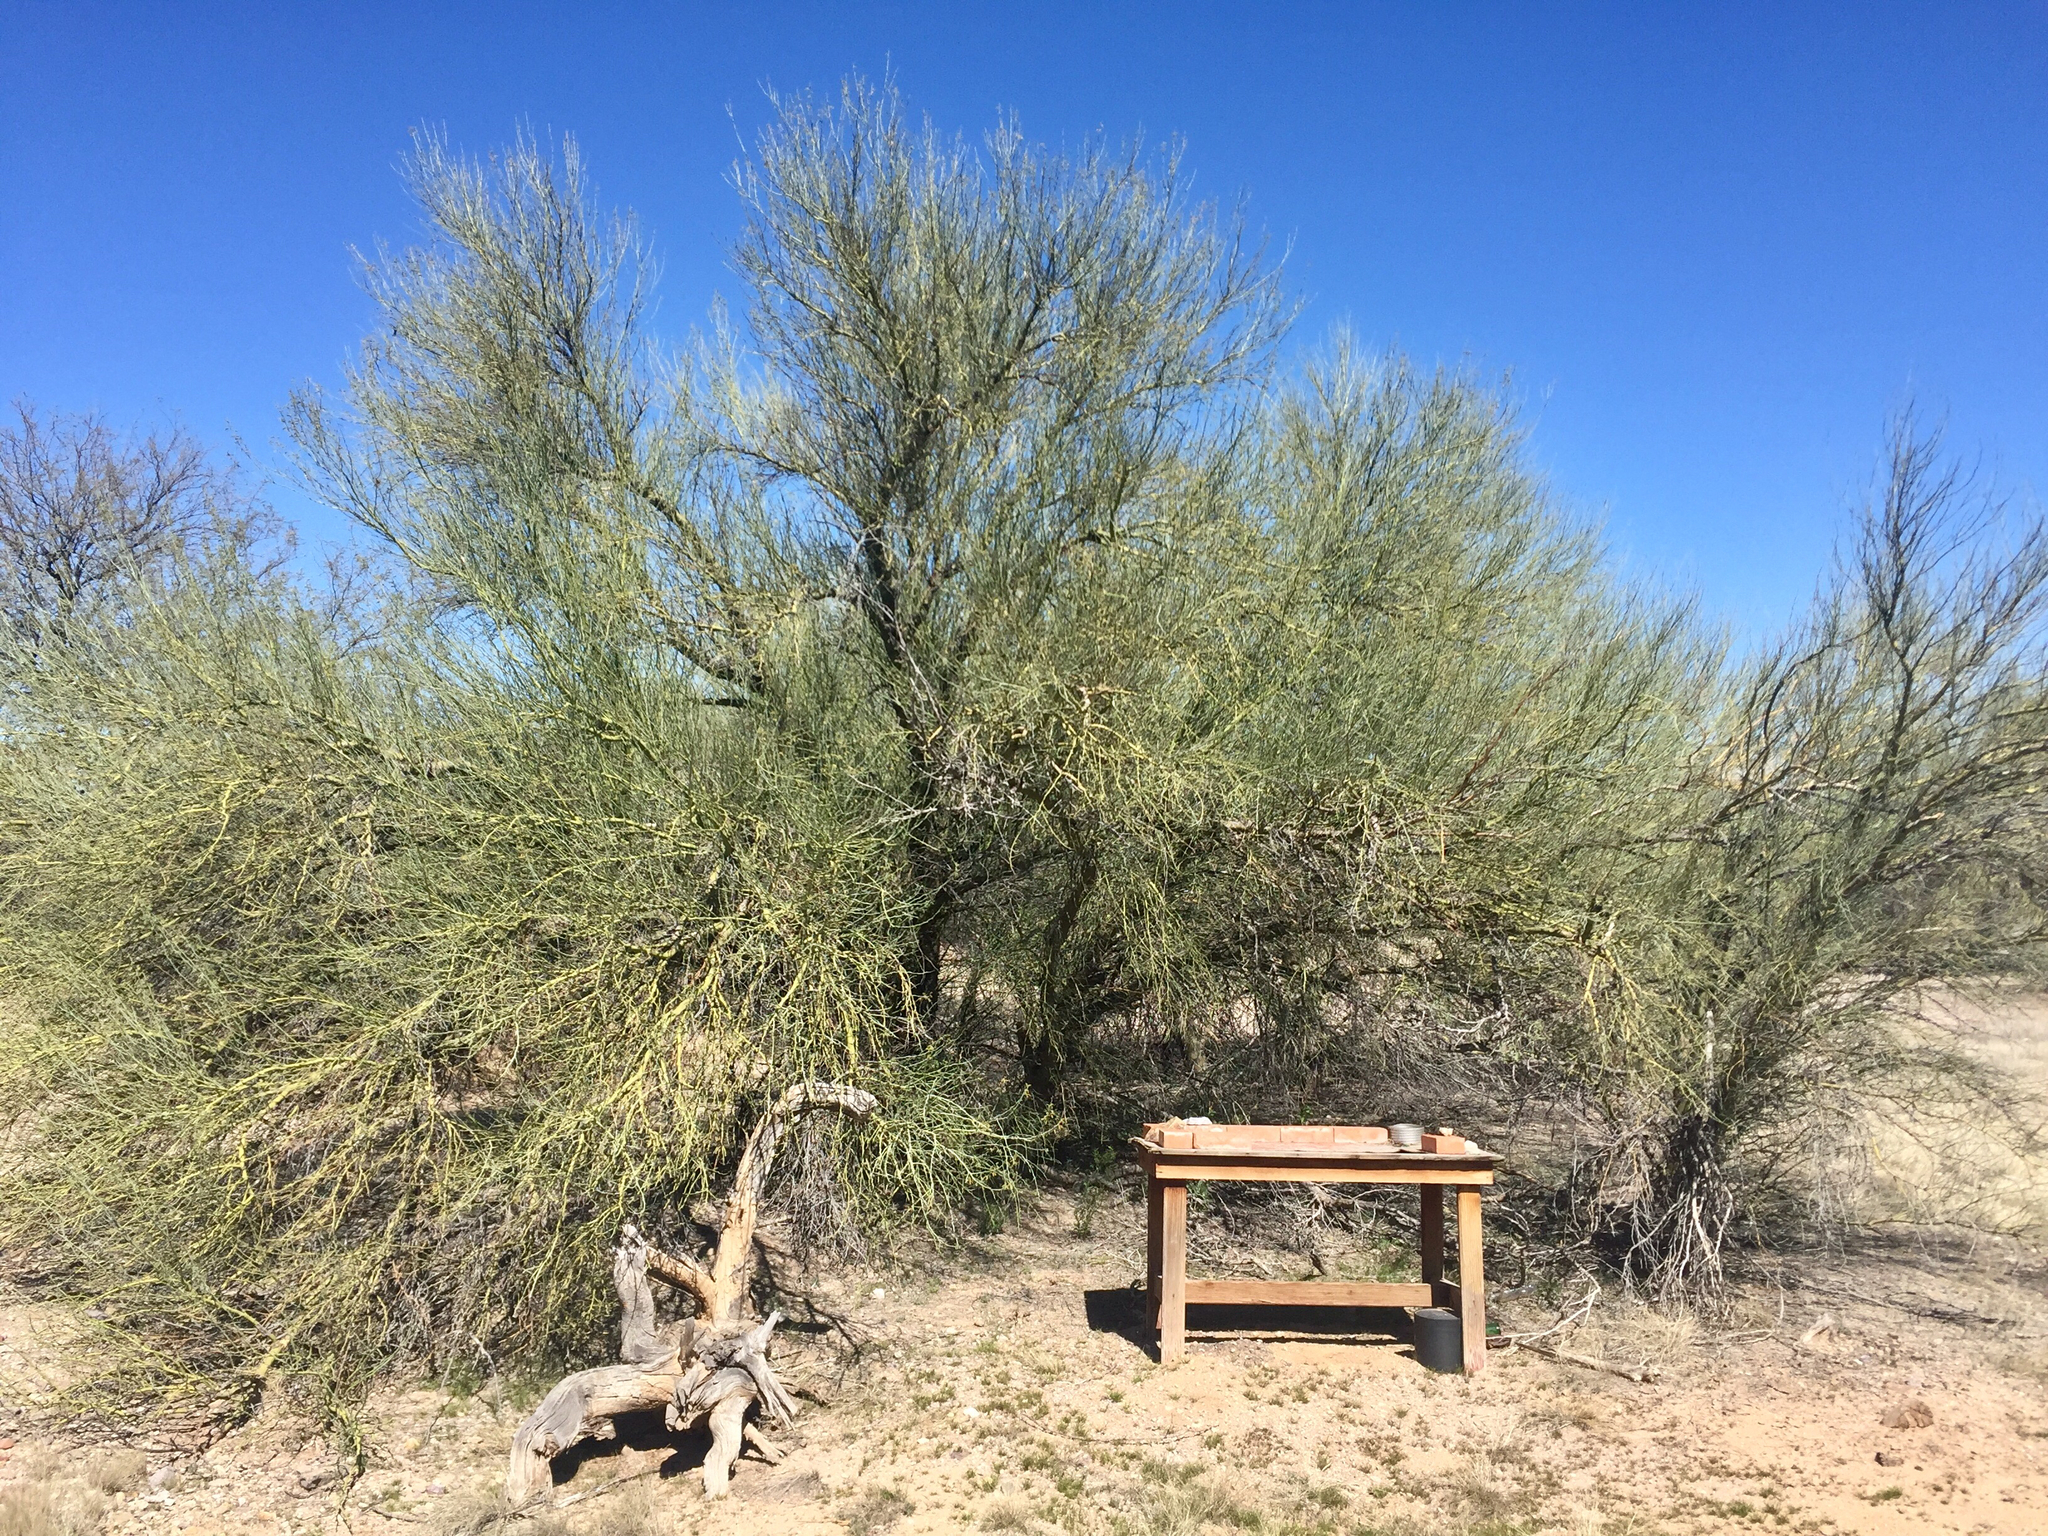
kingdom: Plantae
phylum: Tracheophyta
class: Magnoliopsida
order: Fabales
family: Fabaceae
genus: Parkinsonia
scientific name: Parkinsonia florida
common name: Blue paloverde
